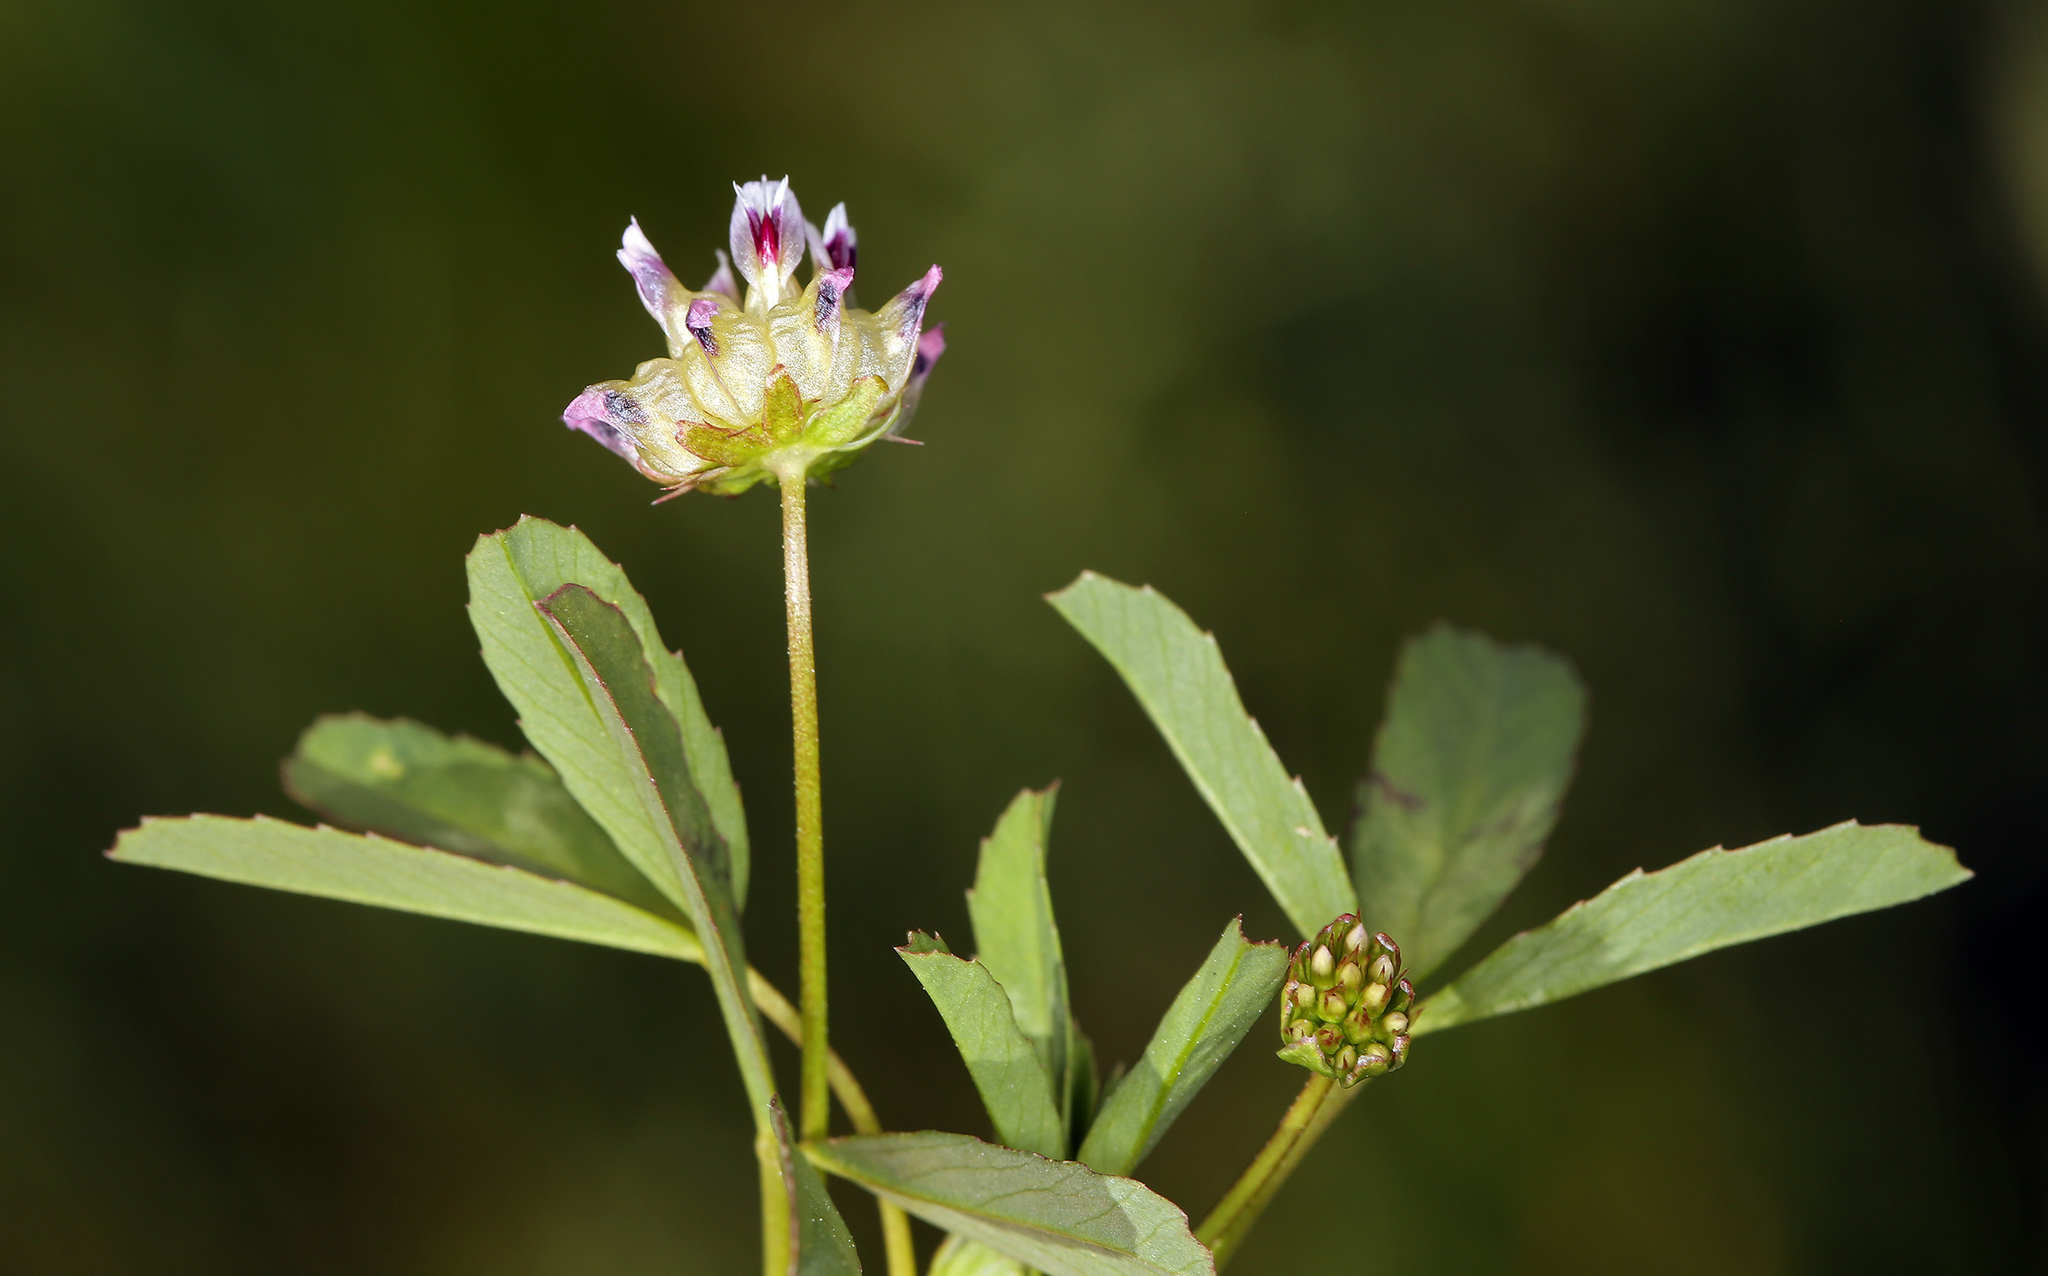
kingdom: Plantae
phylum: Tracheophyta
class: Magnoliopsida
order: Fabales
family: Fabaceae
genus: Trifolium
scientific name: Trifolium depauperatum
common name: Poverty clover
